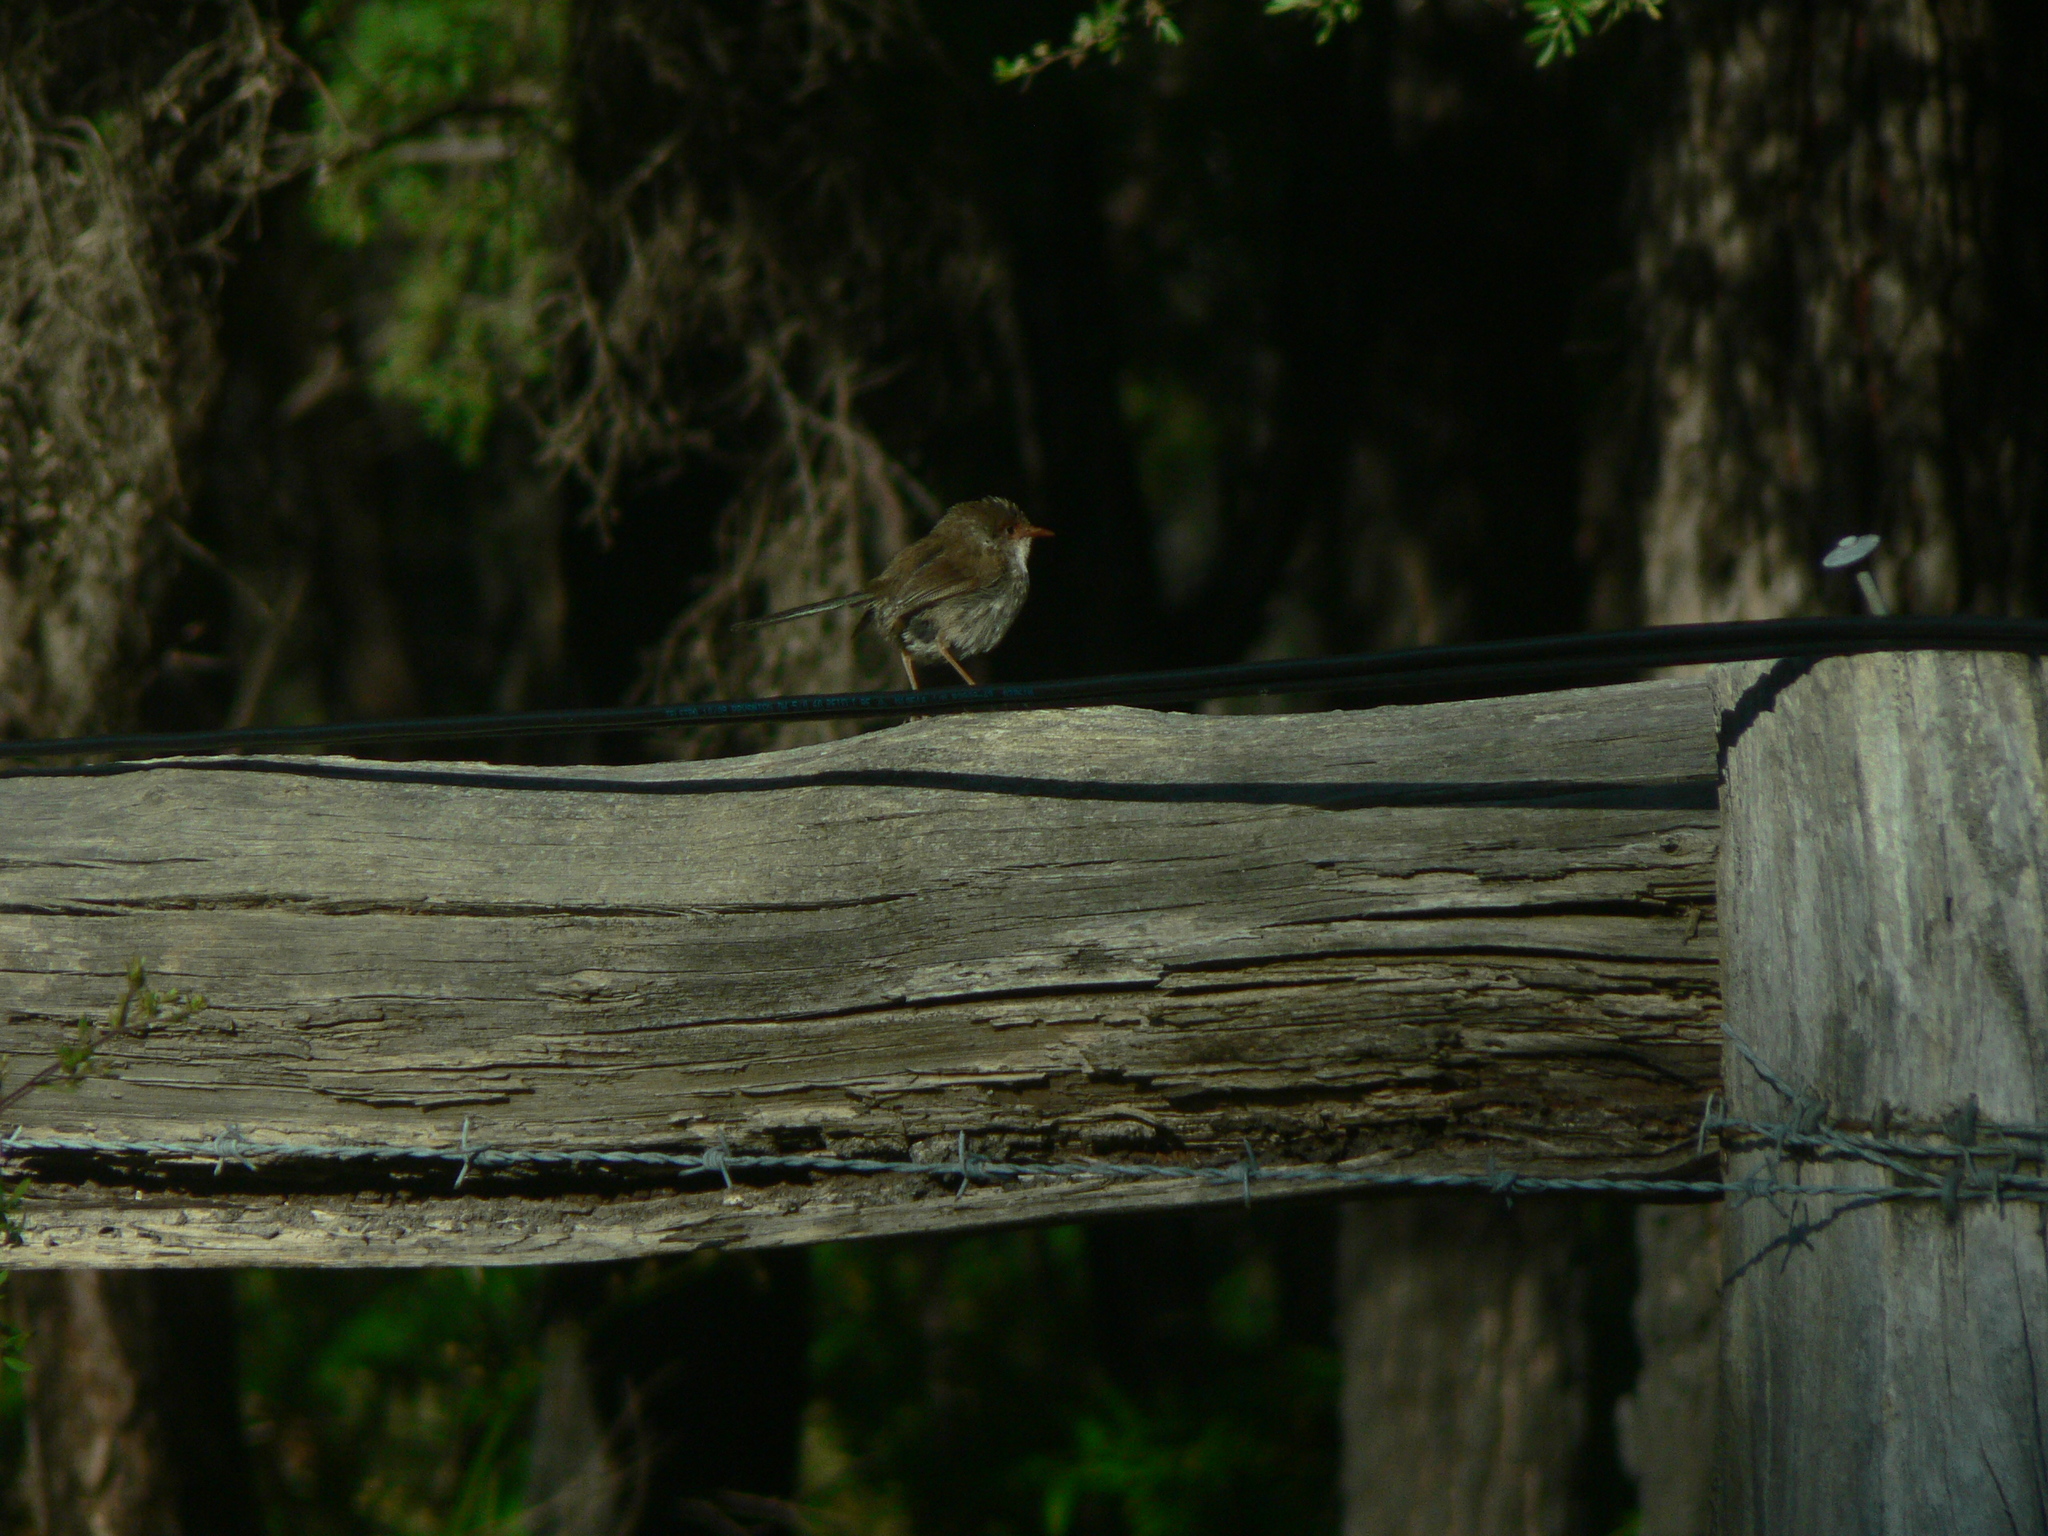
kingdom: Animalia
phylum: Chordata
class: Aves
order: Passeriformes
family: Maluridae
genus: Malurus
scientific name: Malurus cyaneus
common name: Superb fairywren
